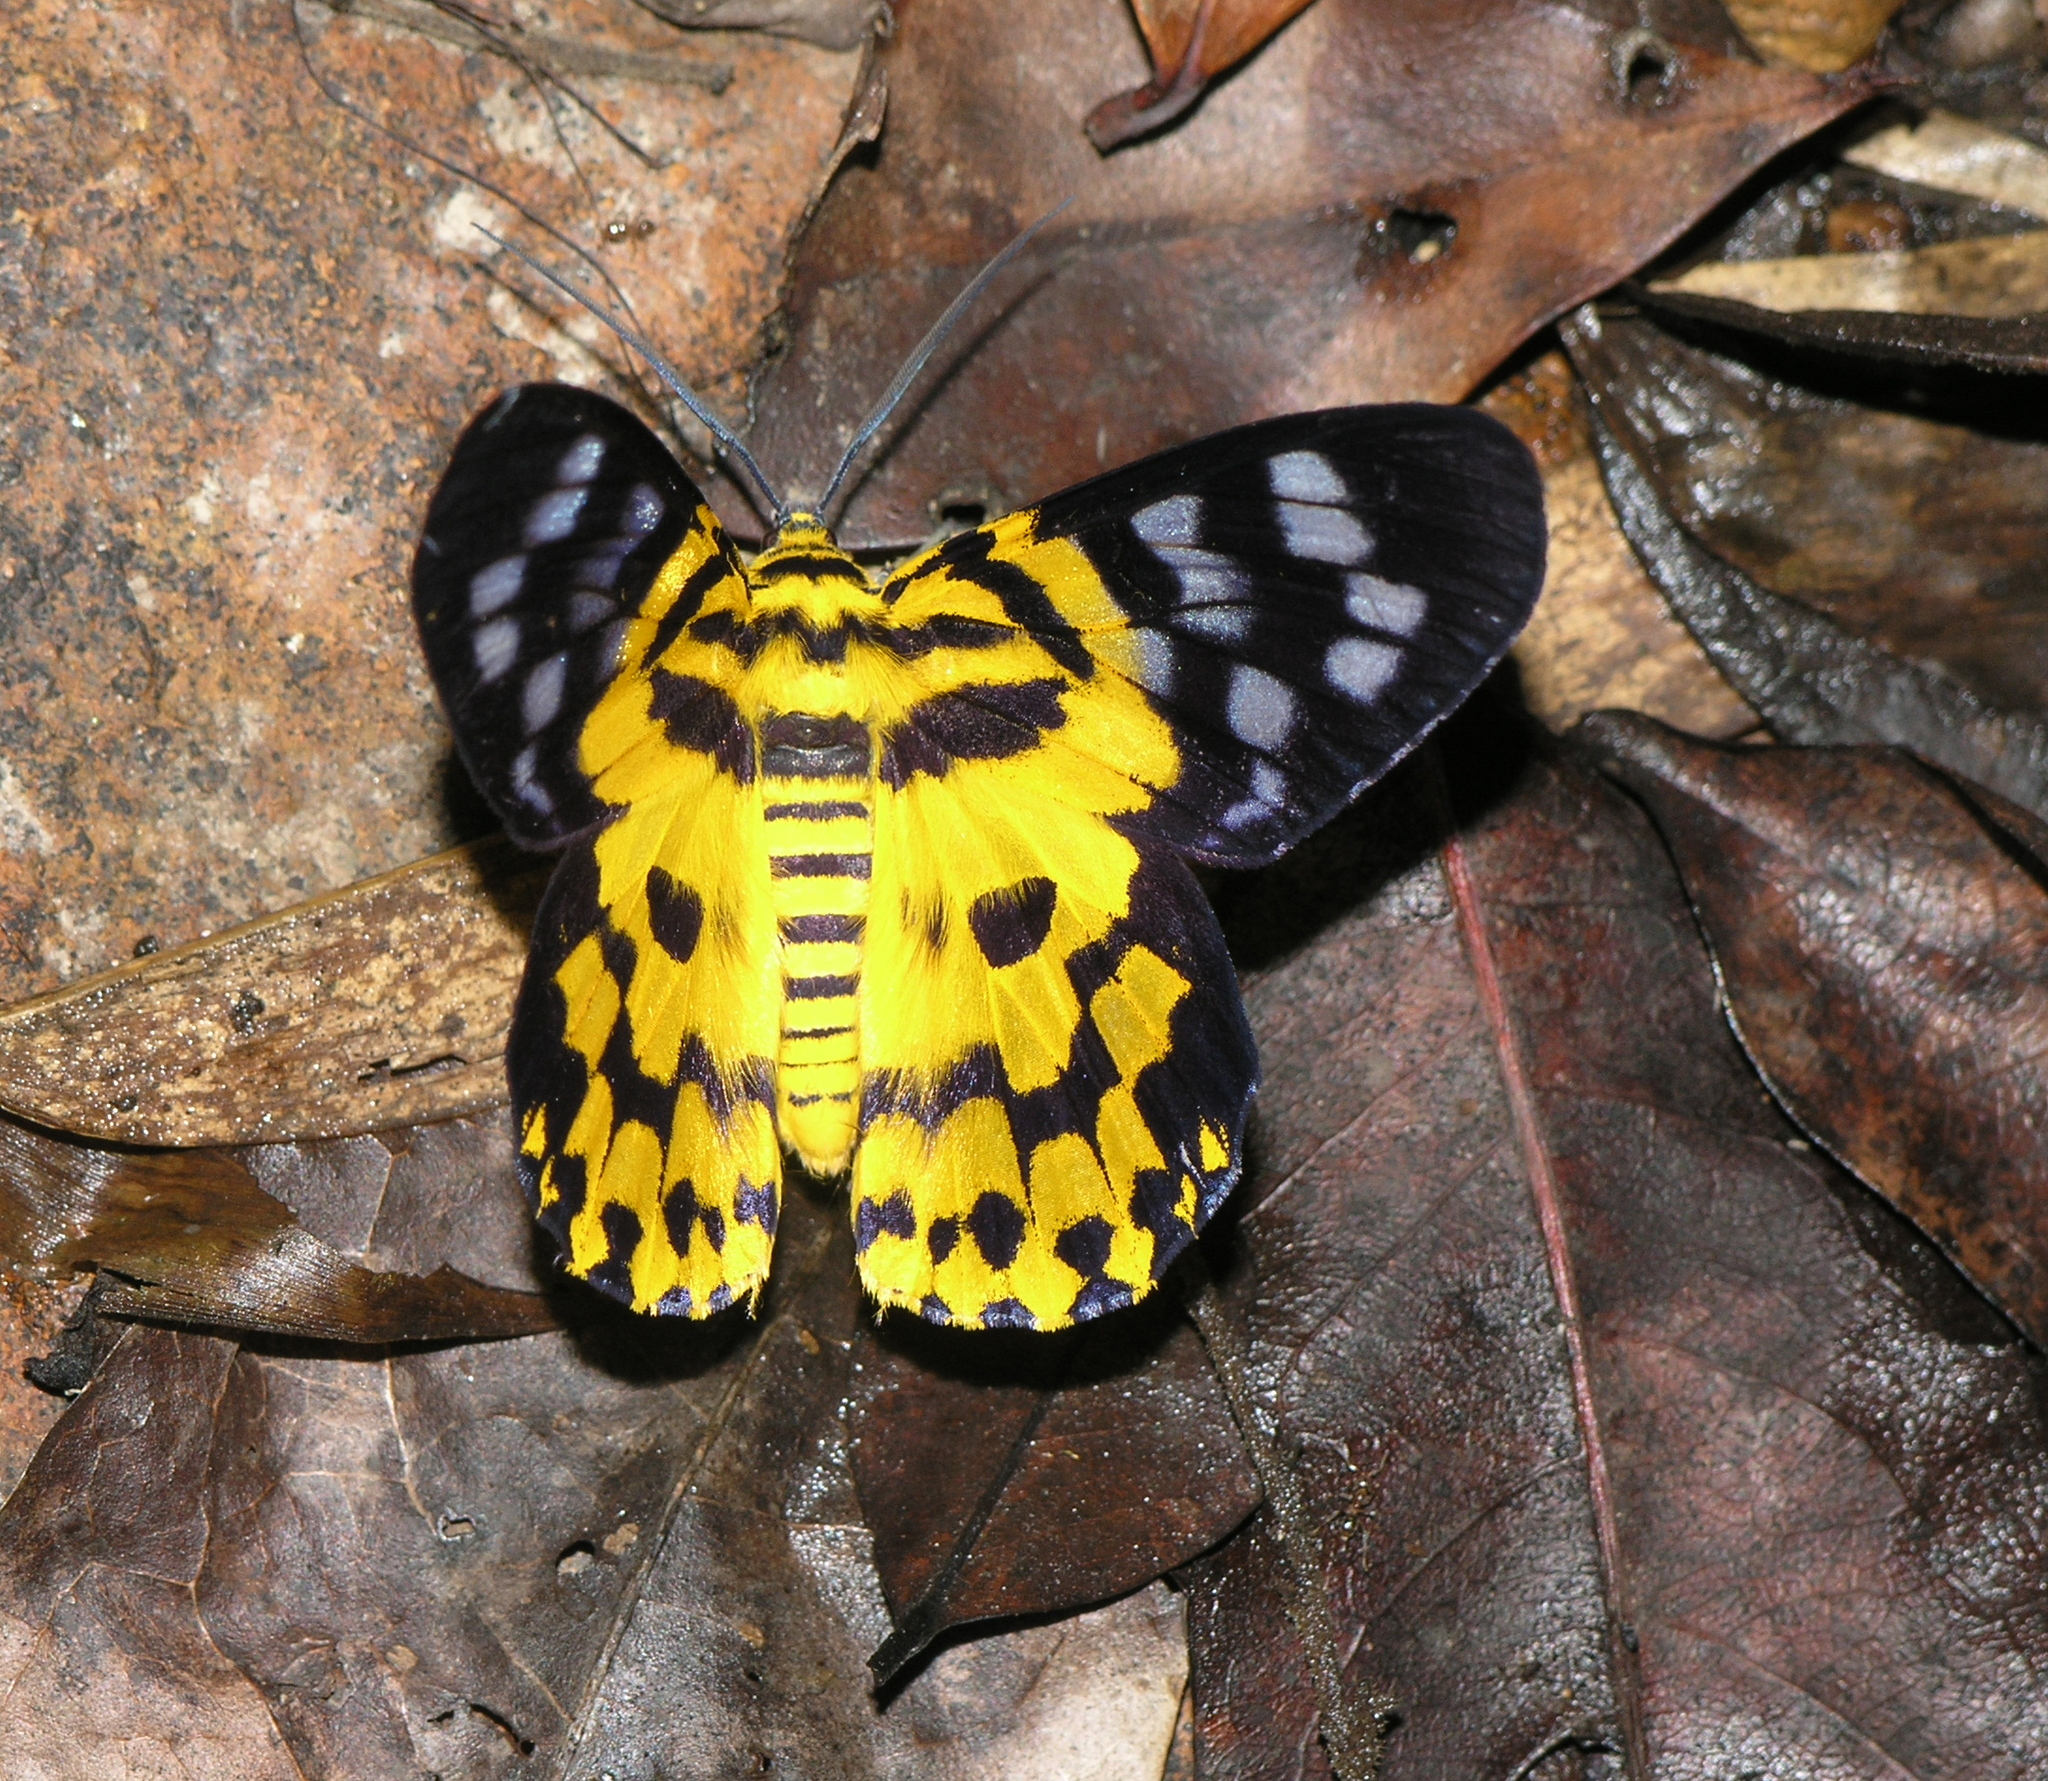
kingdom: Animalia
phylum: Arthropoda
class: Insecta
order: Lepidoptera
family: Geometridae
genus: Dysphania
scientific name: Dysphania subrepleta
